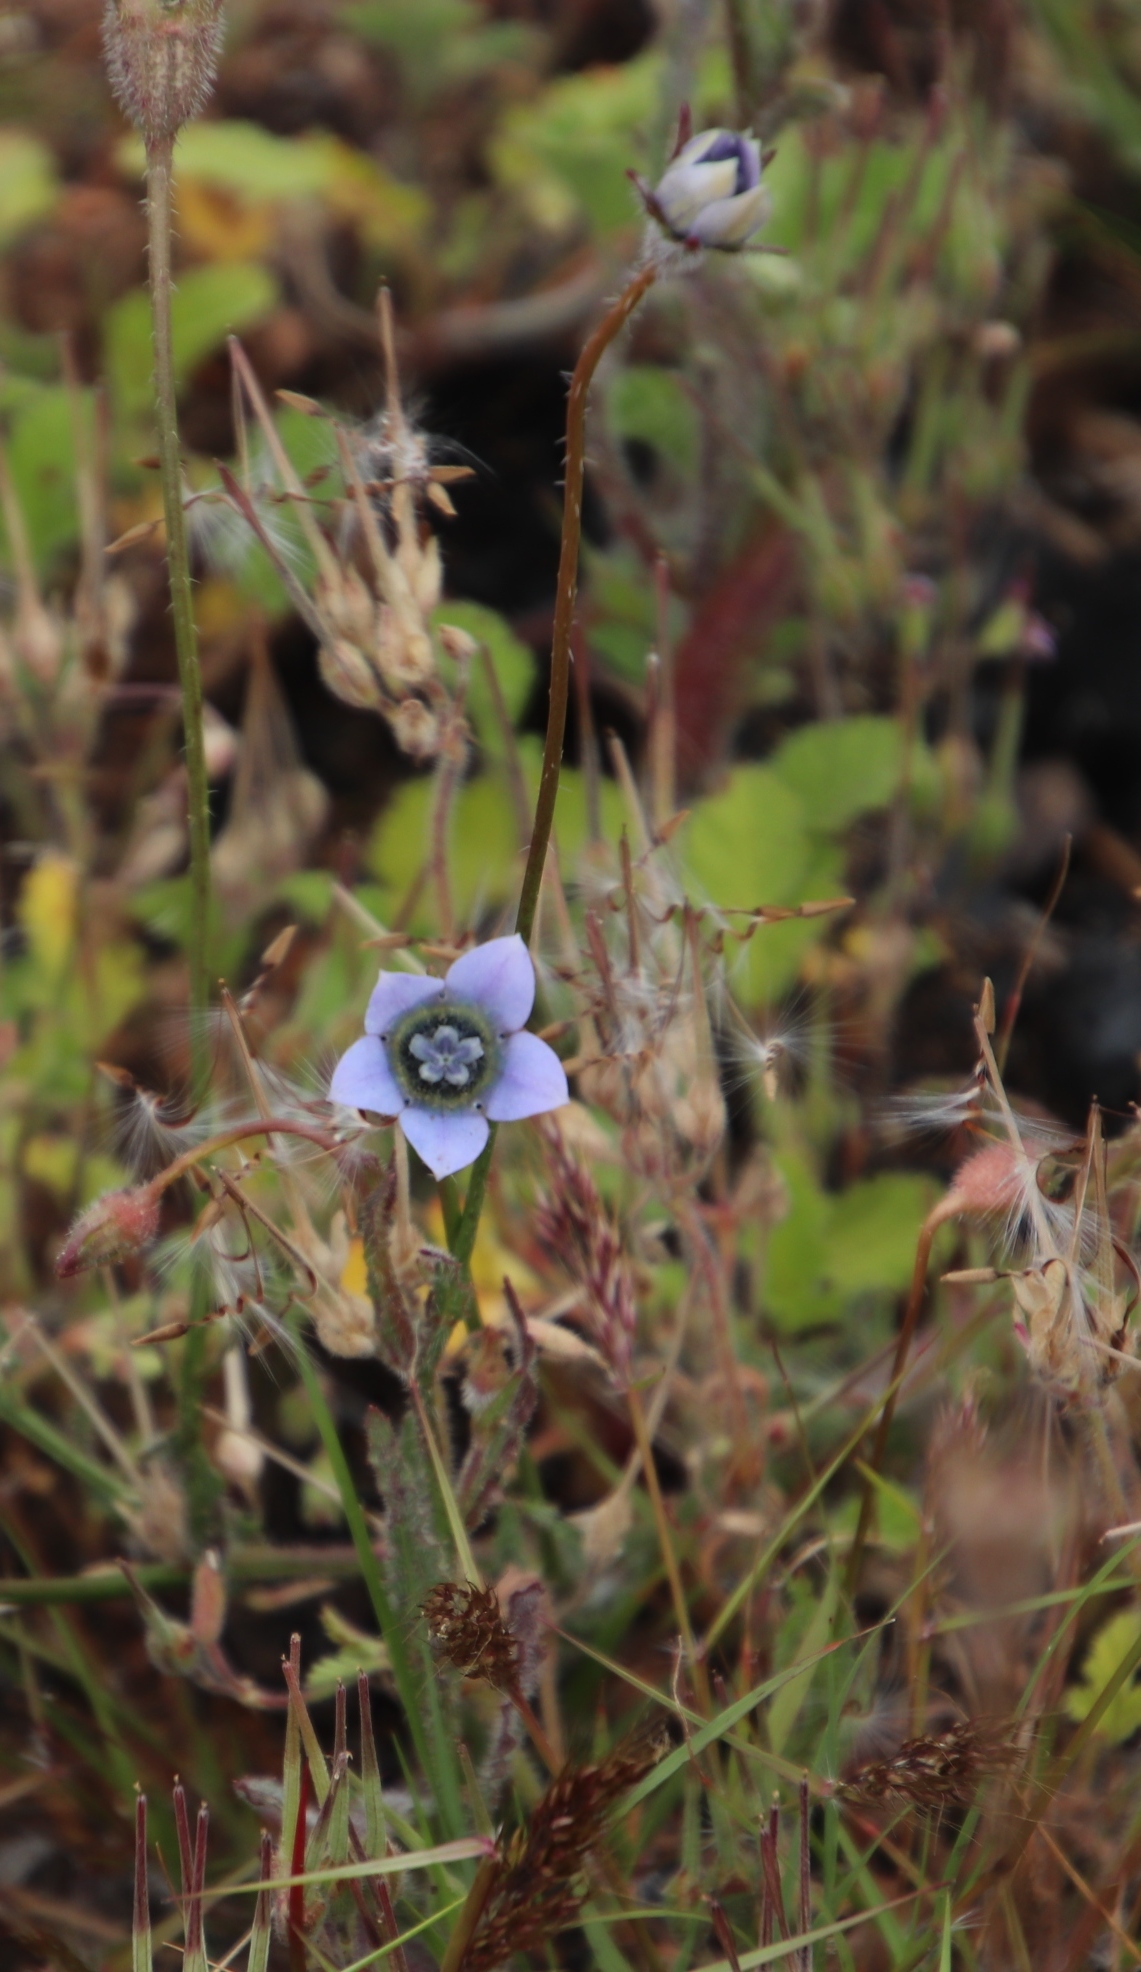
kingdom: Plantae
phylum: Tracheophyta
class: Magnoliopsida
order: Asterales
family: Campanulaceae
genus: Wahlenbergia
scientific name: Wahlenbergia capensis
